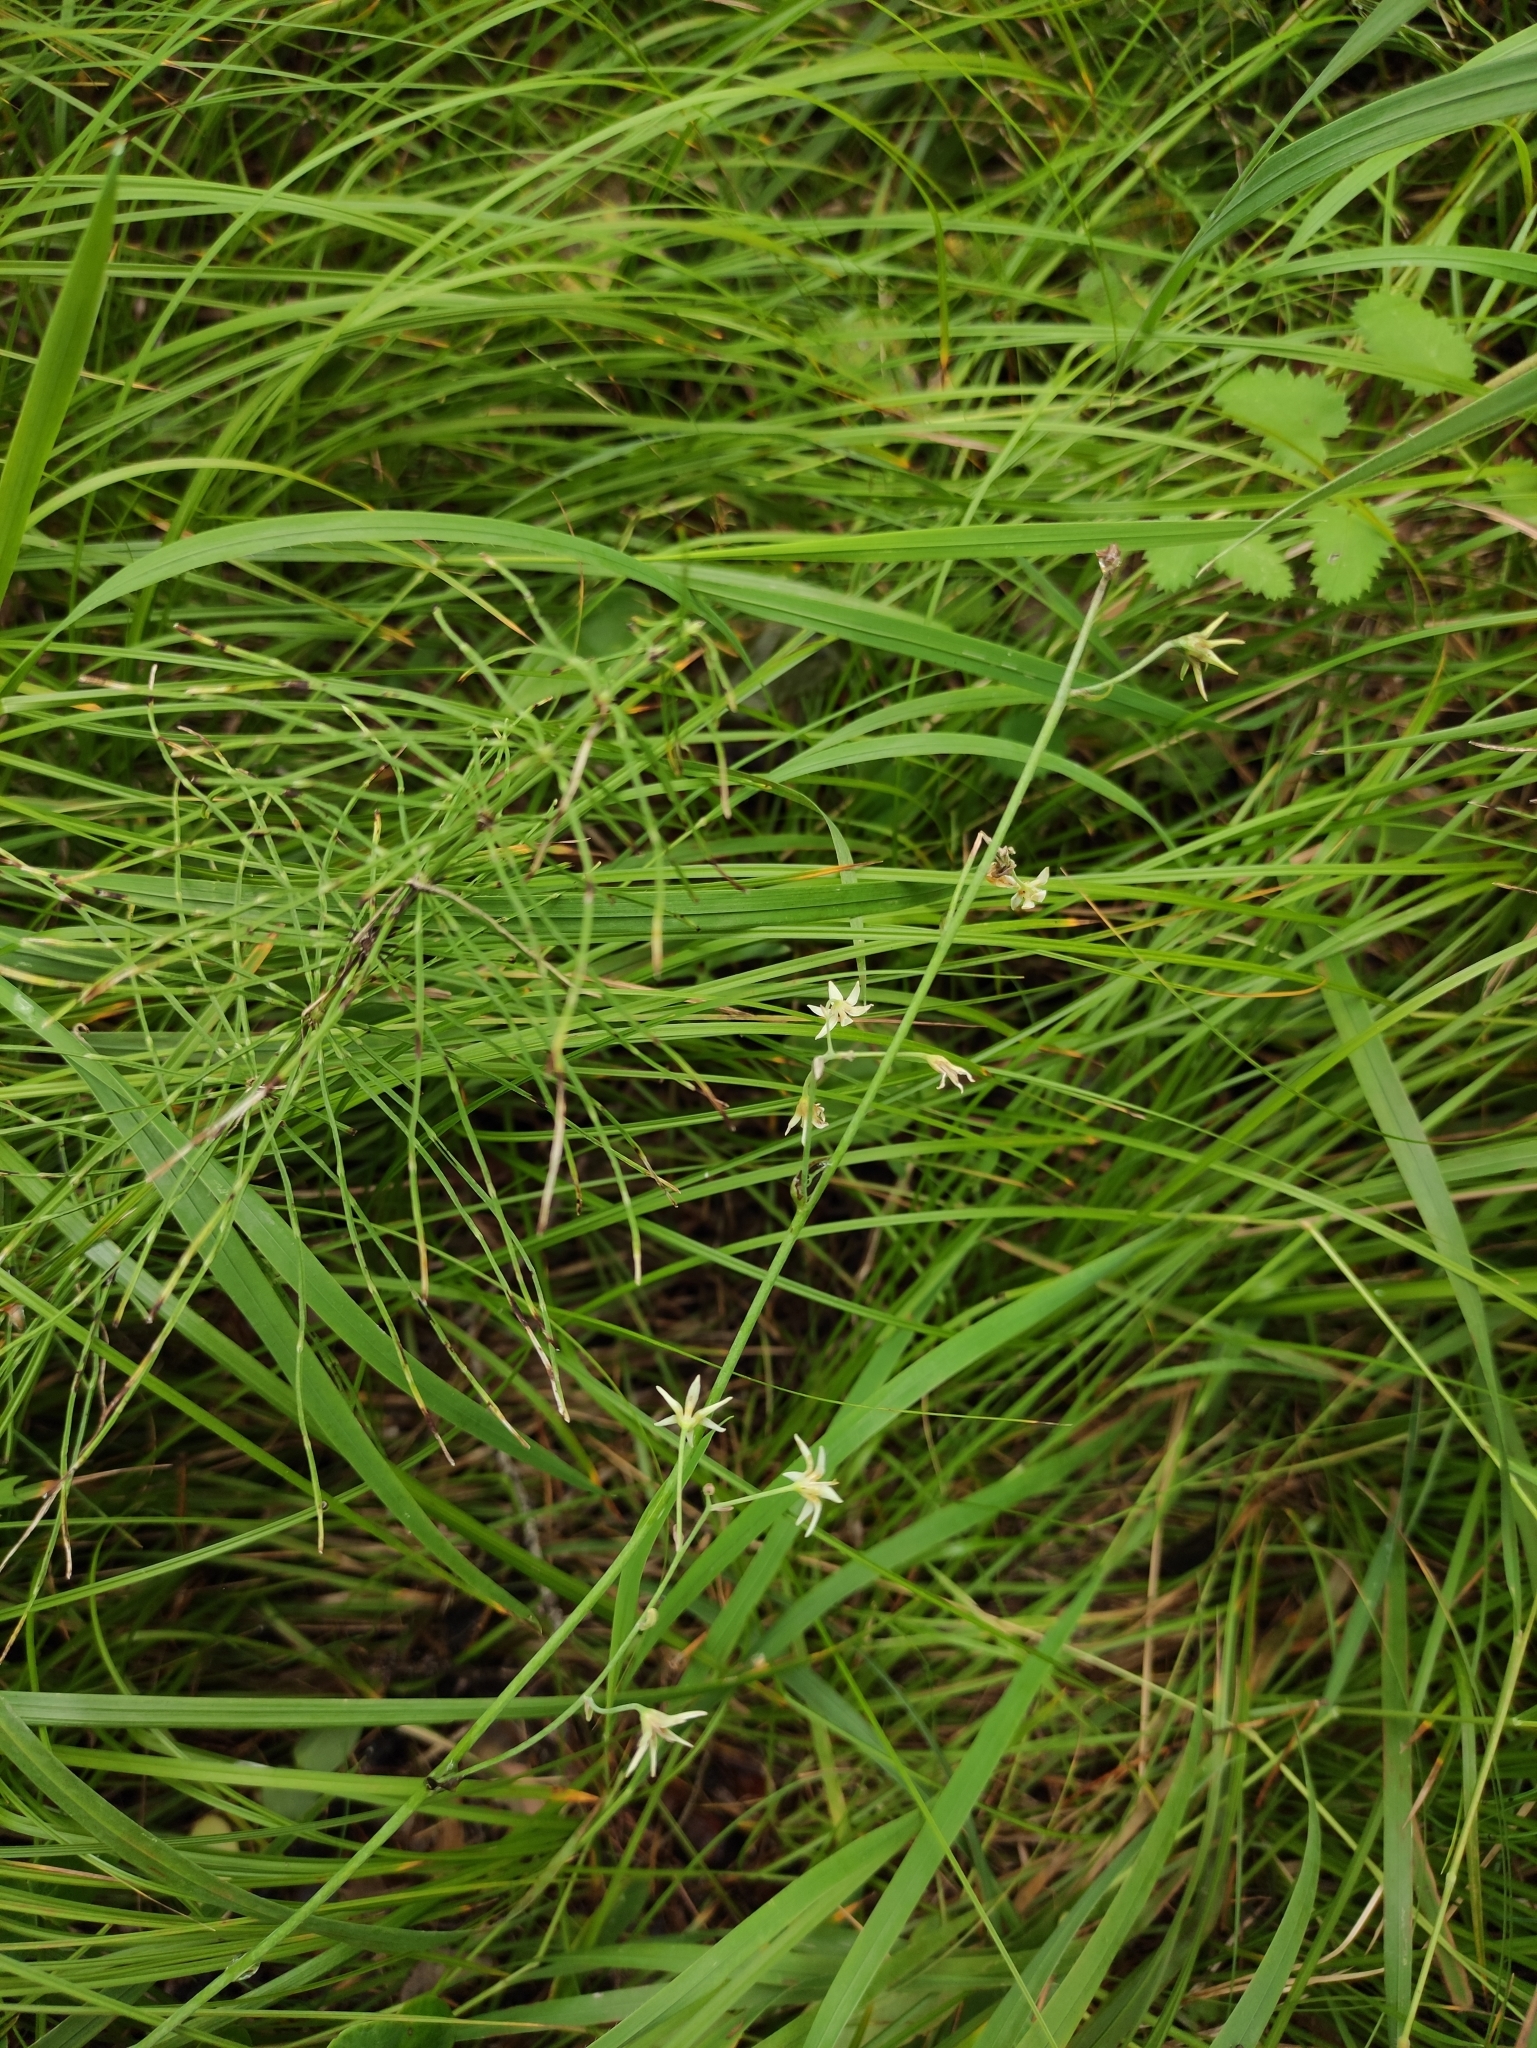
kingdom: Plantae
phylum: Tracheophyta
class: Liliopsida
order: Liliales
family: Melanthiaceae
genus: Anticlea
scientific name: Anticlea sibirica
